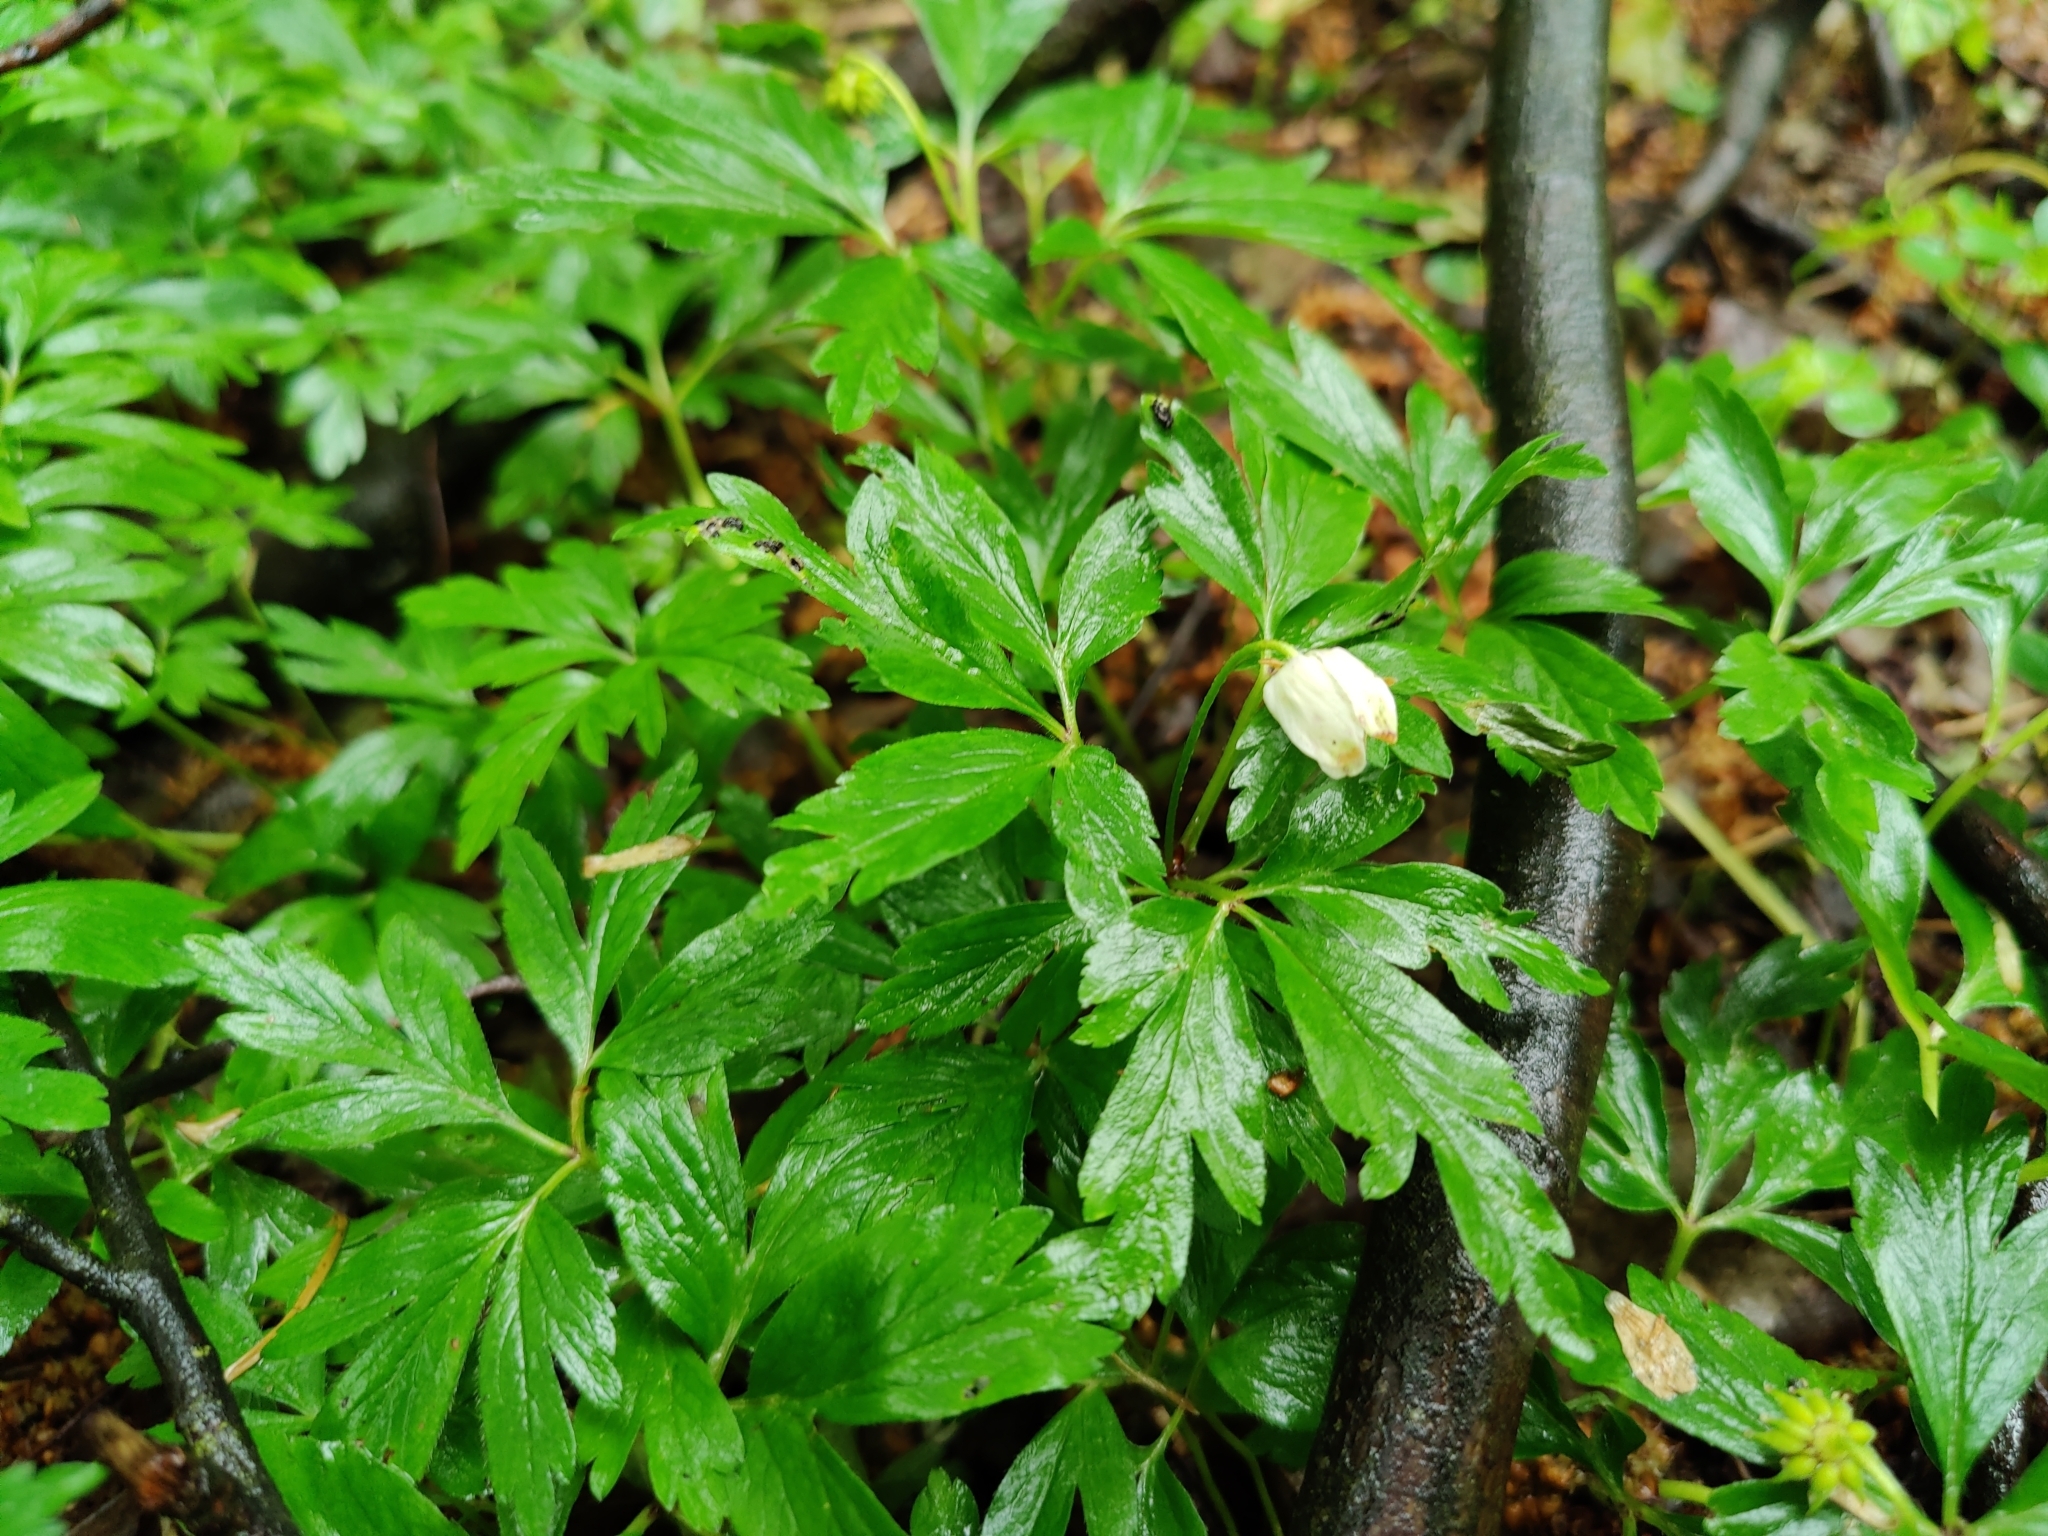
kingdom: Plantae
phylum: Tracheophyta
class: Magnoliopsida
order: Ranunculales
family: Ranunculaceae
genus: Anemone
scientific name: Anemone nemorosa
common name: Wood anemone
